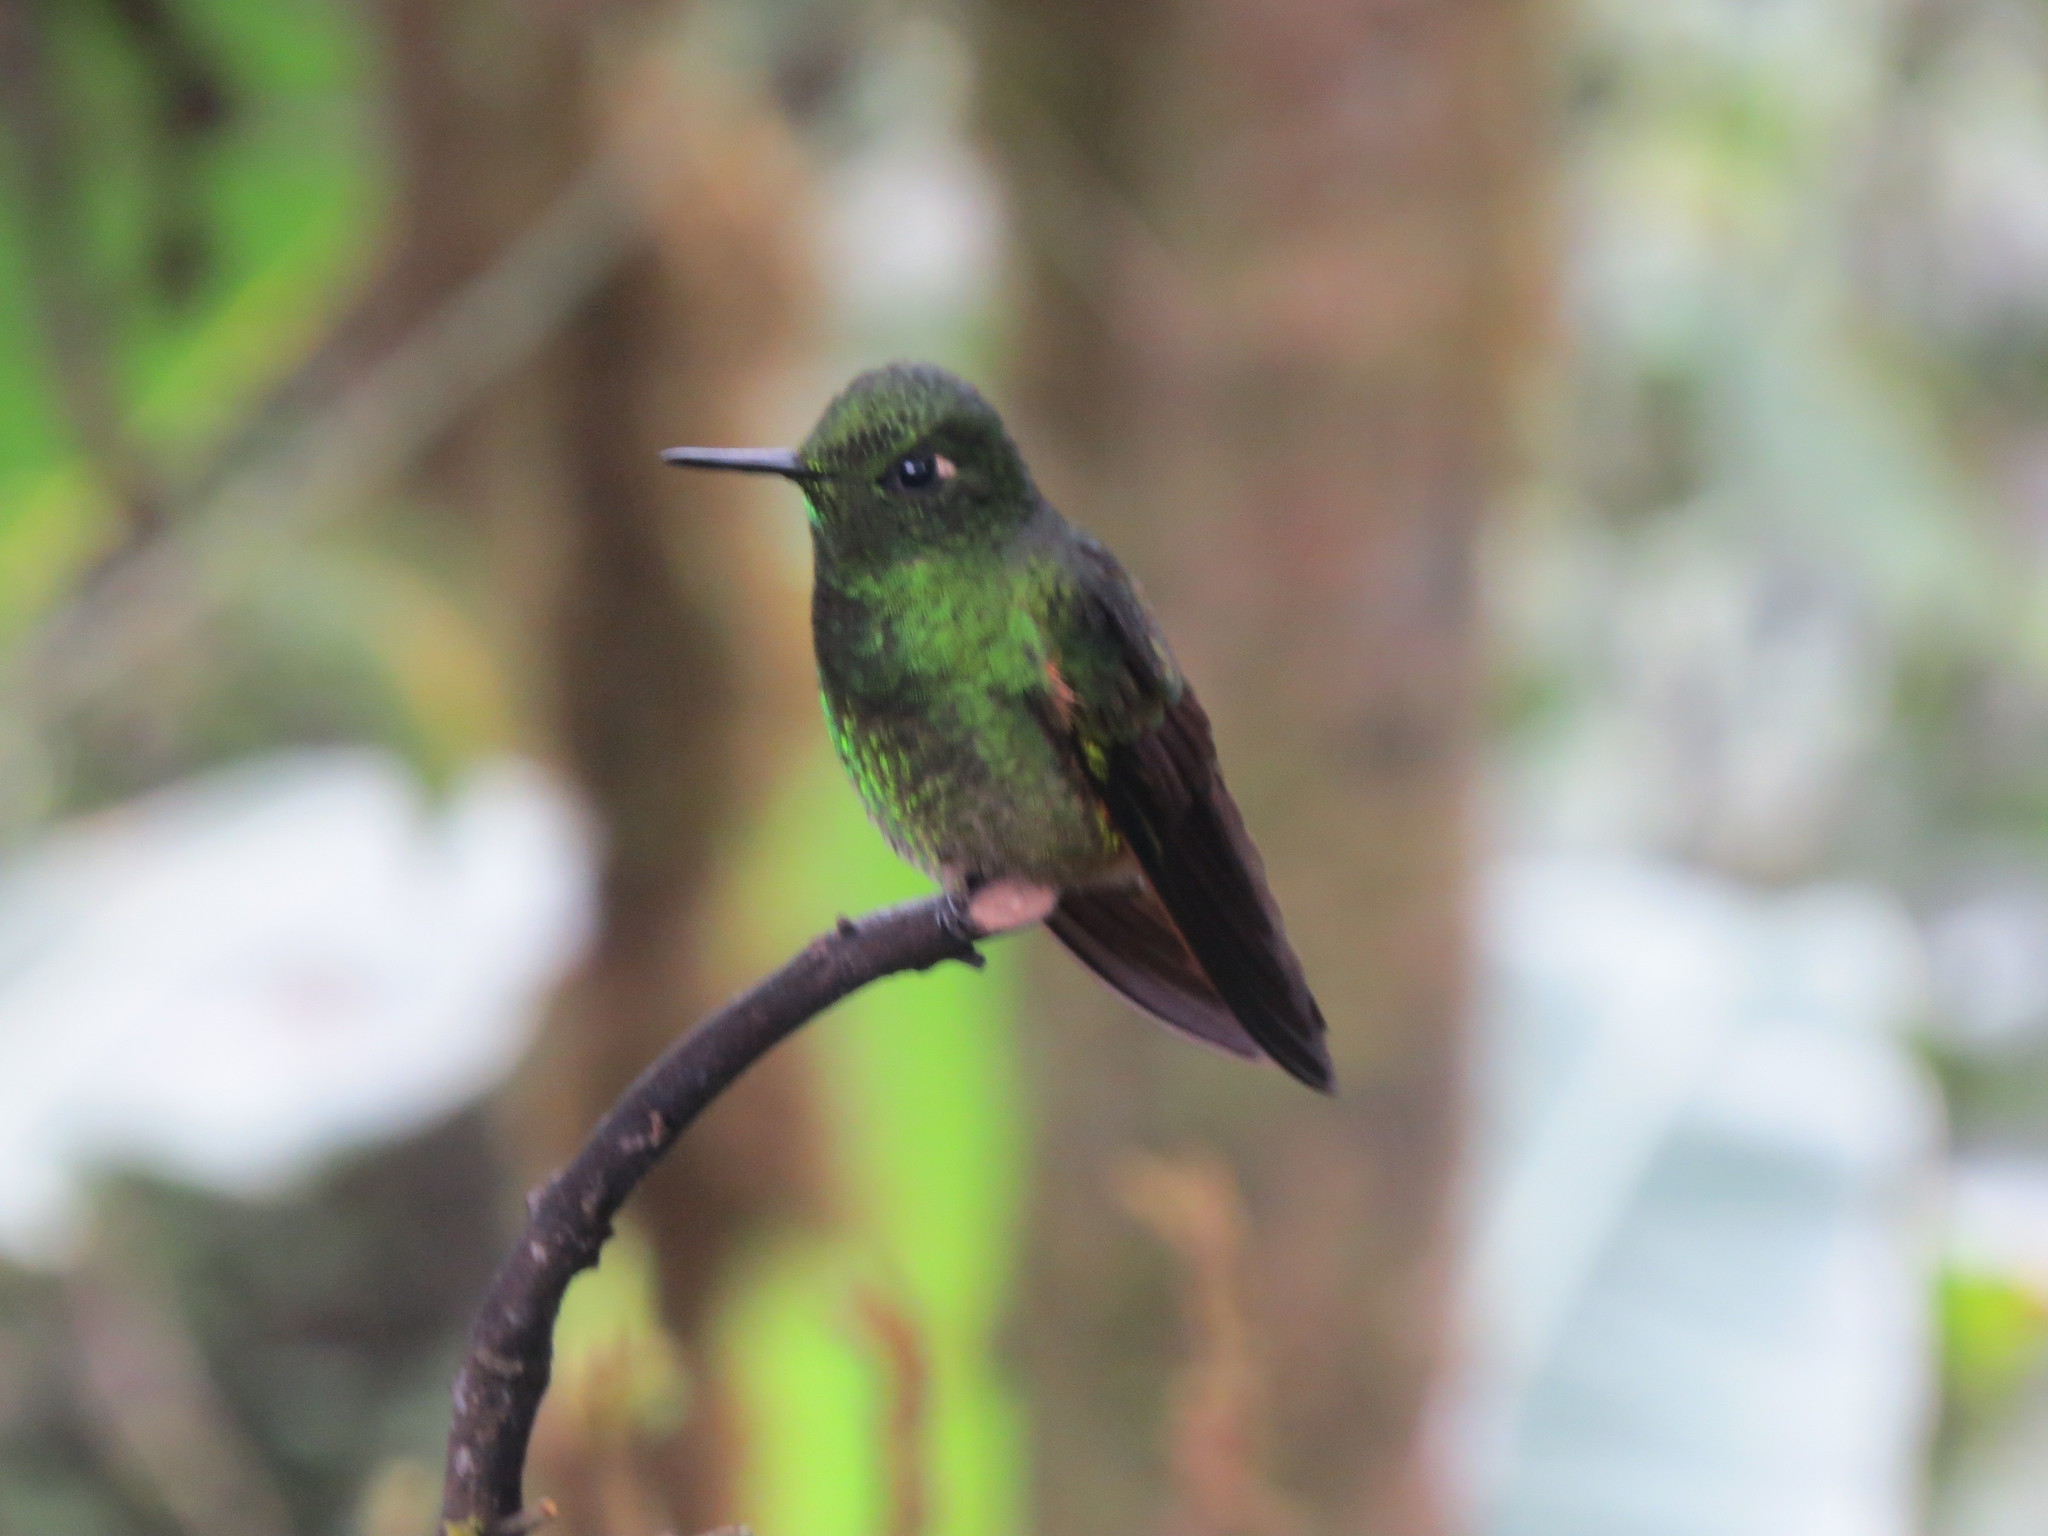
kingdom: Animalia
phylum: Chordata
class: Aves
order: Apodiformes
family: Trochilidae
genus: Boissonneaua
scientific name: Boissonneaua flavescens
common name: Buff-tailed coronet
